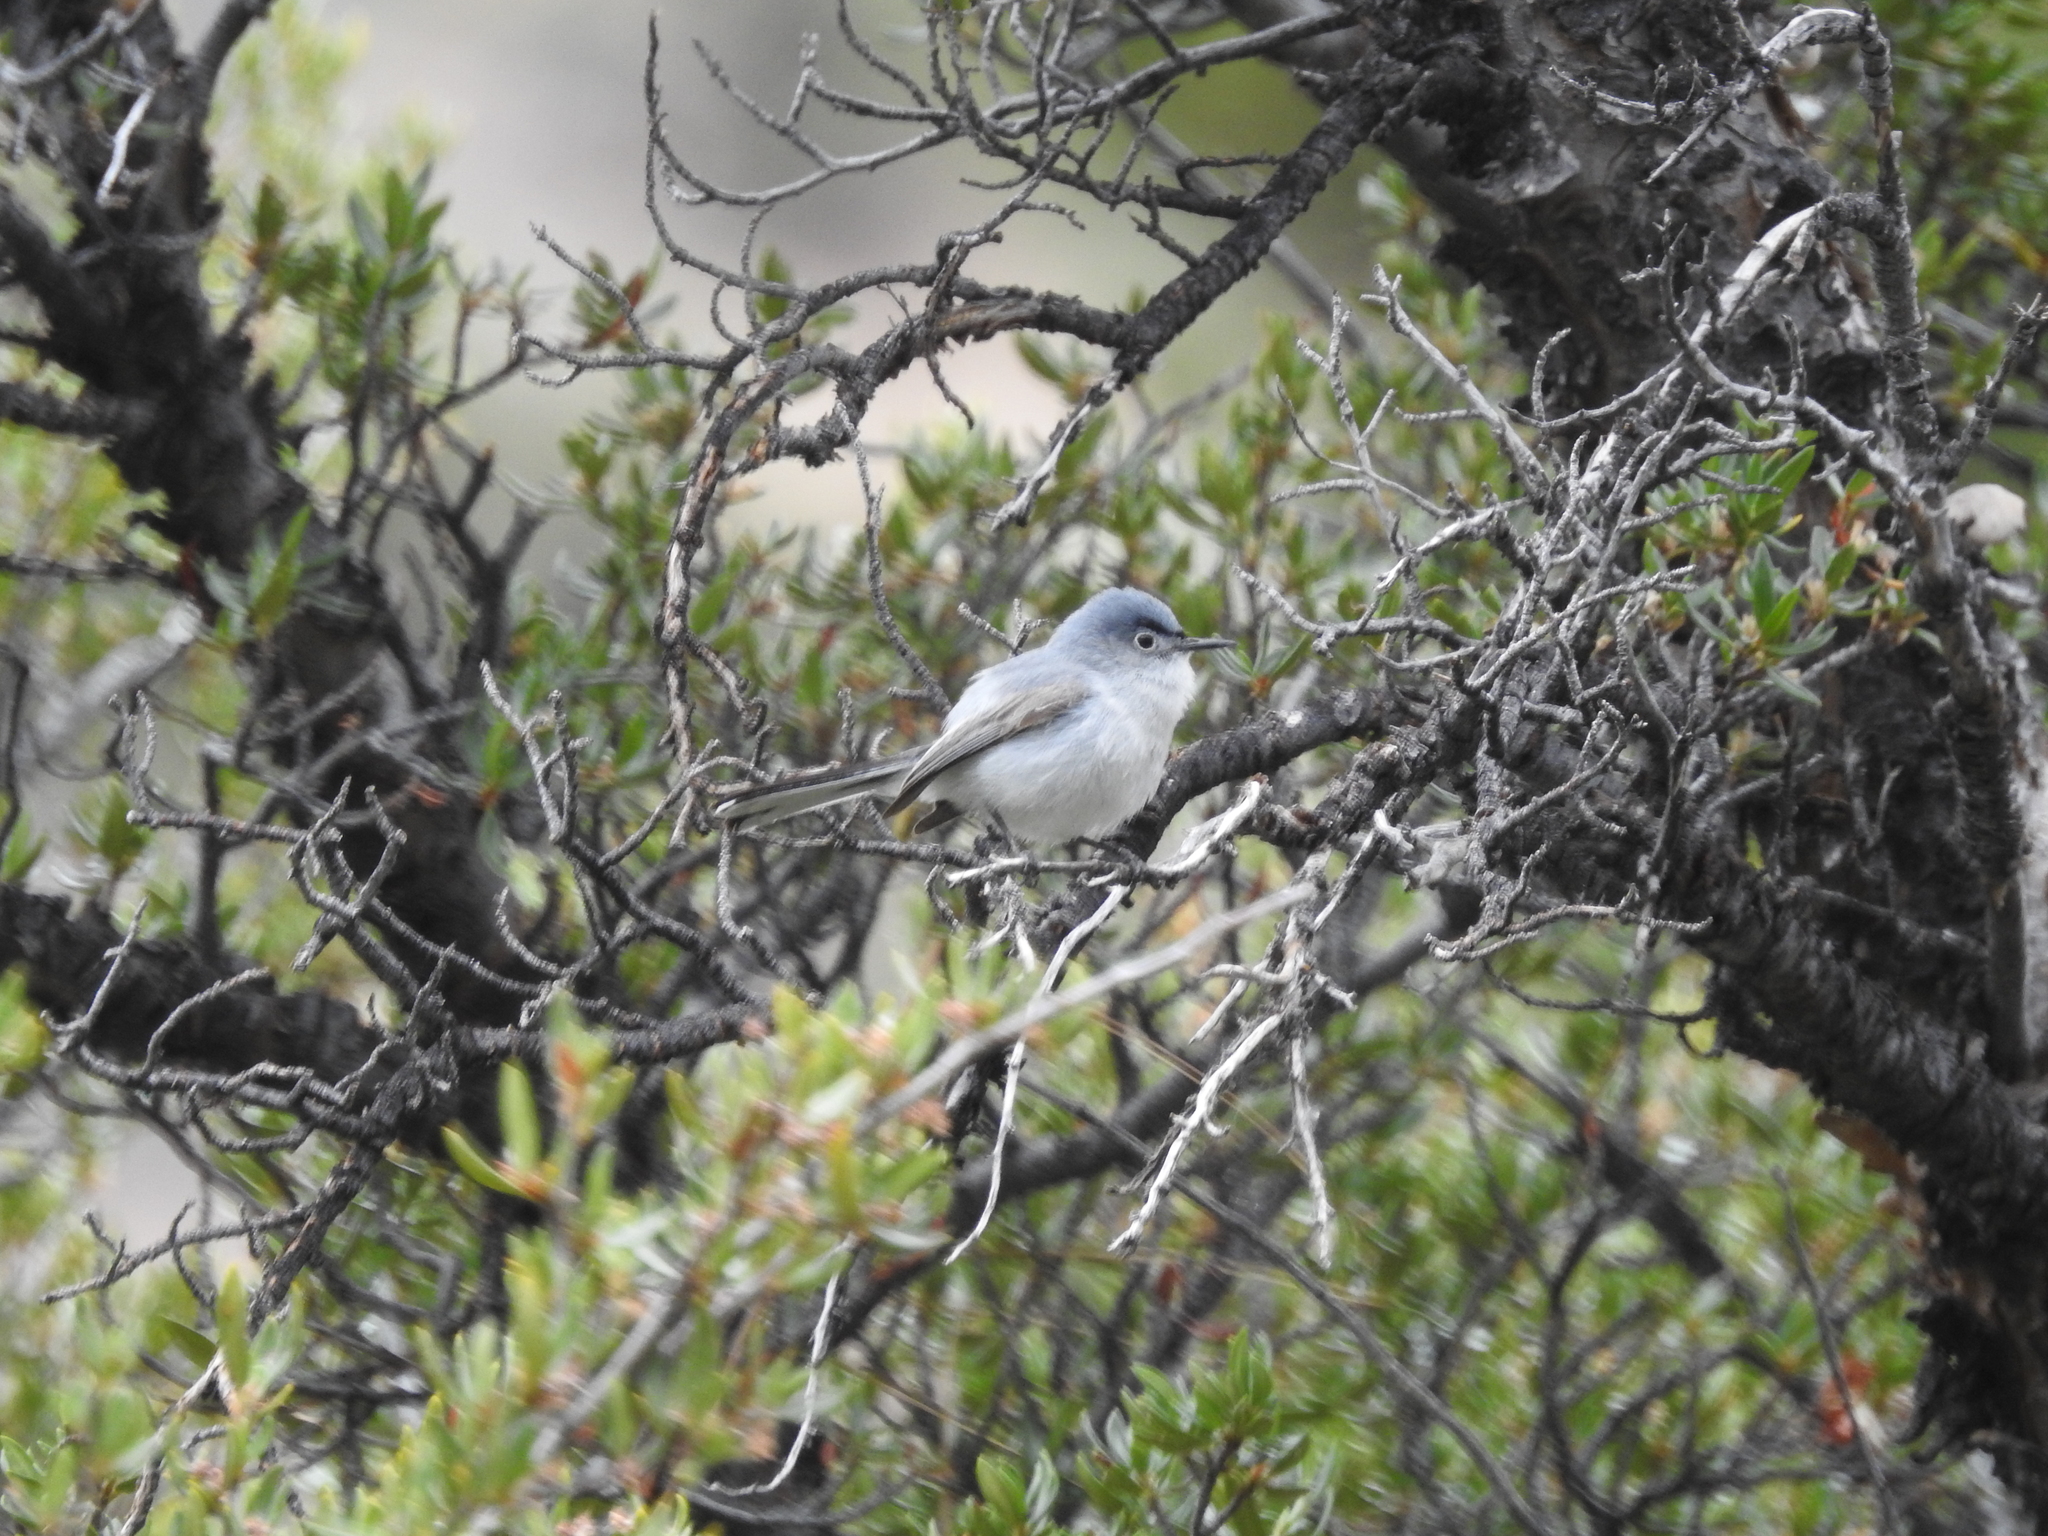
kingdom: Animalia
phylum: Chordata
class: Aves
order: Passeriformes
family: Polioptilidae
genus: Polioptila
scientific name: Polioptila caerulea
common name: Blue-gray gnatcatcher
